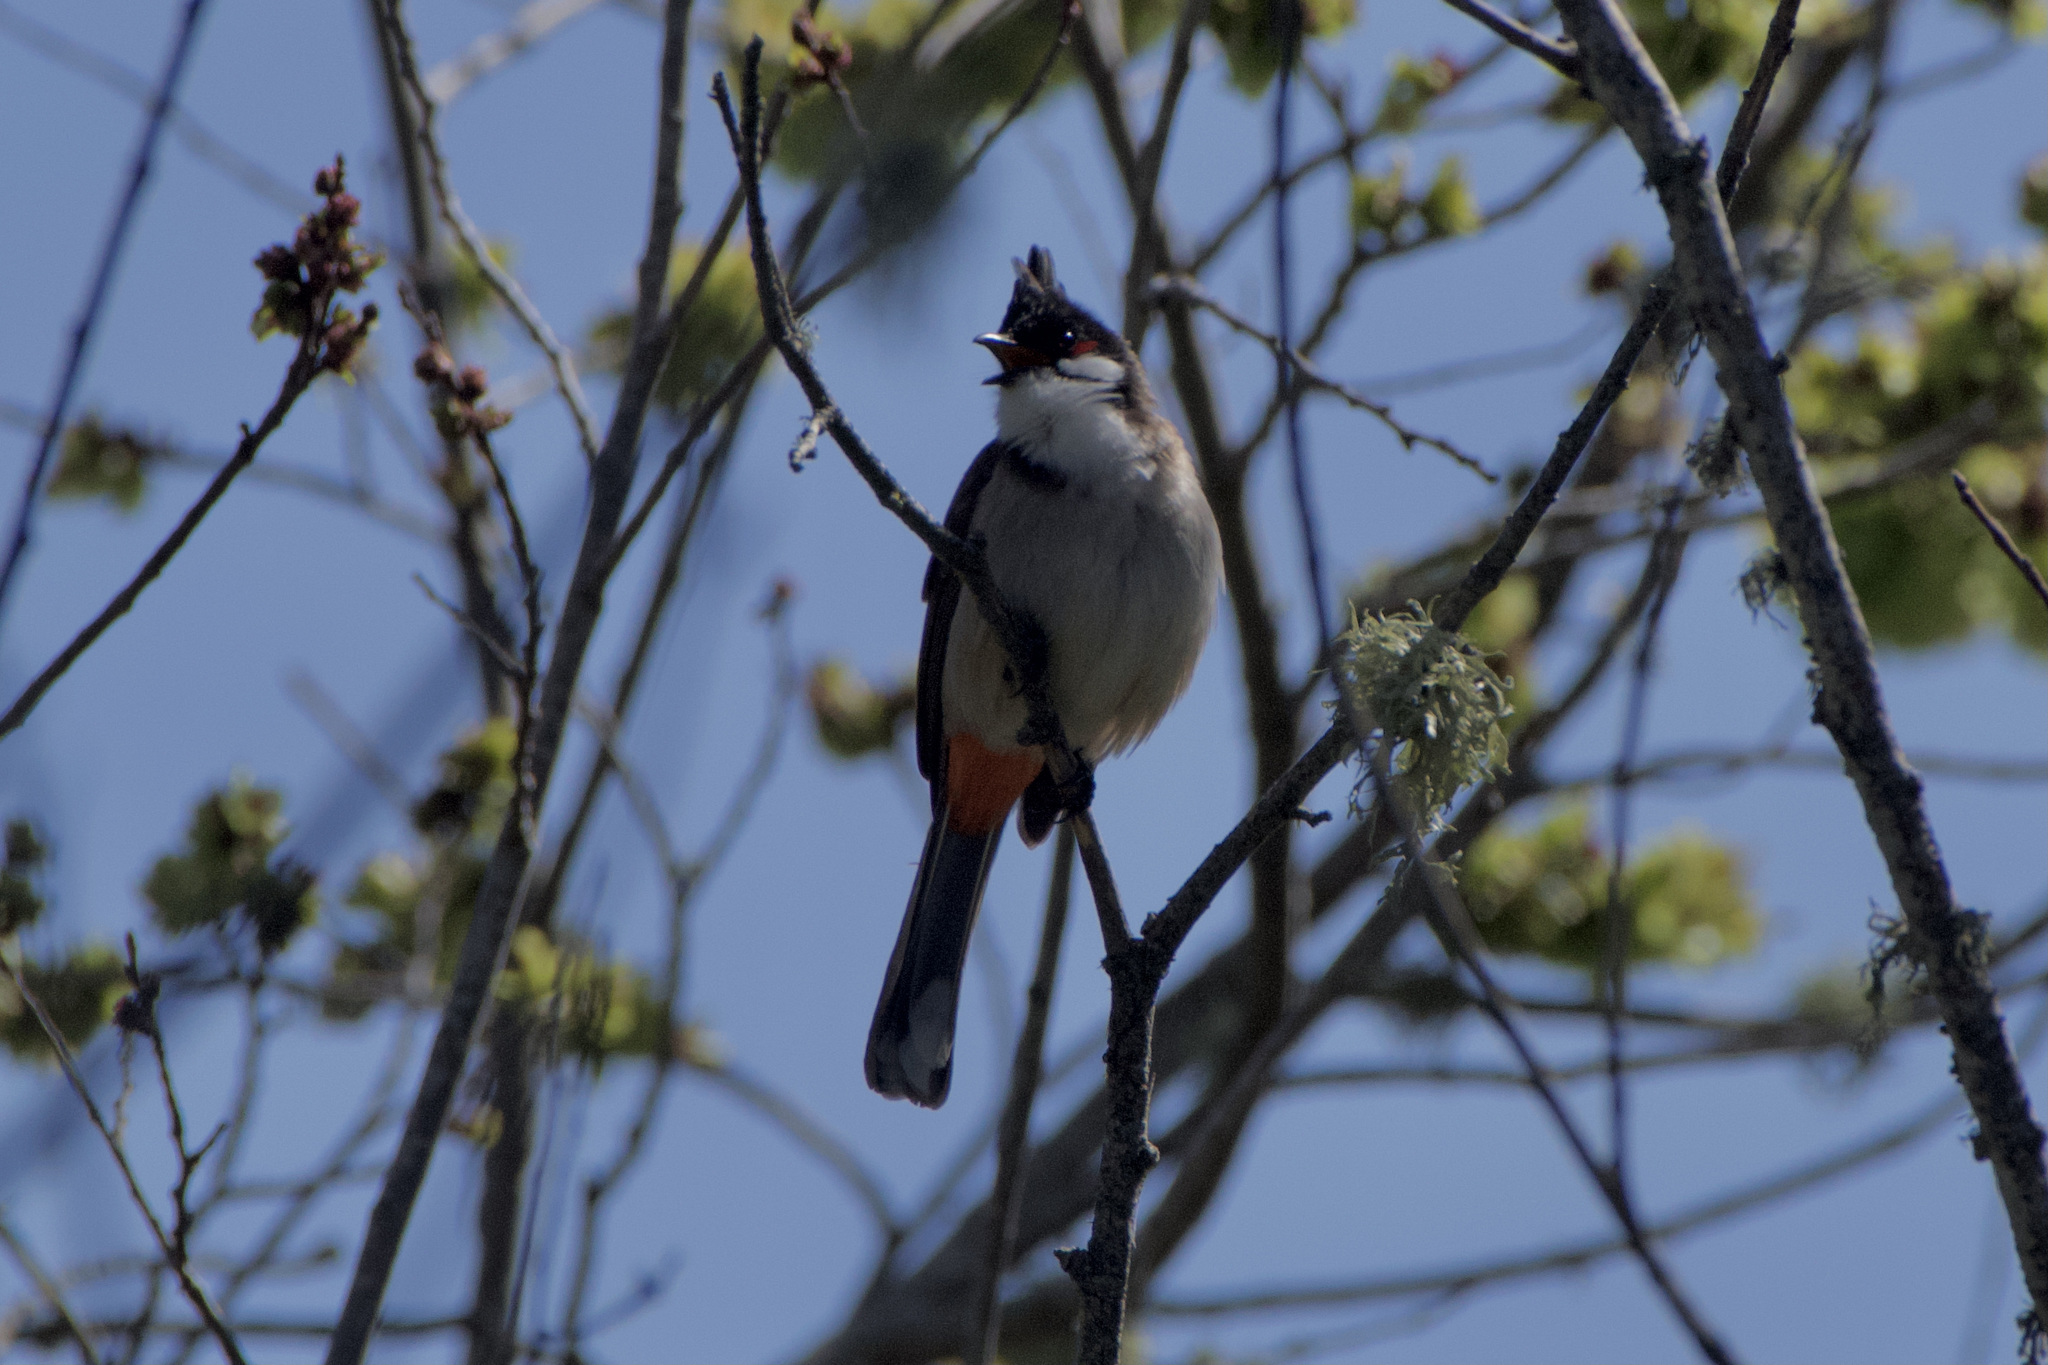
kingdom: Animalia
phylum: Chordata
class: Aves
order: Passeriformes
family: Pycnonotidae
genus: Pycnonotus
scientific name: Pycnonotus jocosus
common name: Red-whiskered bulbul
